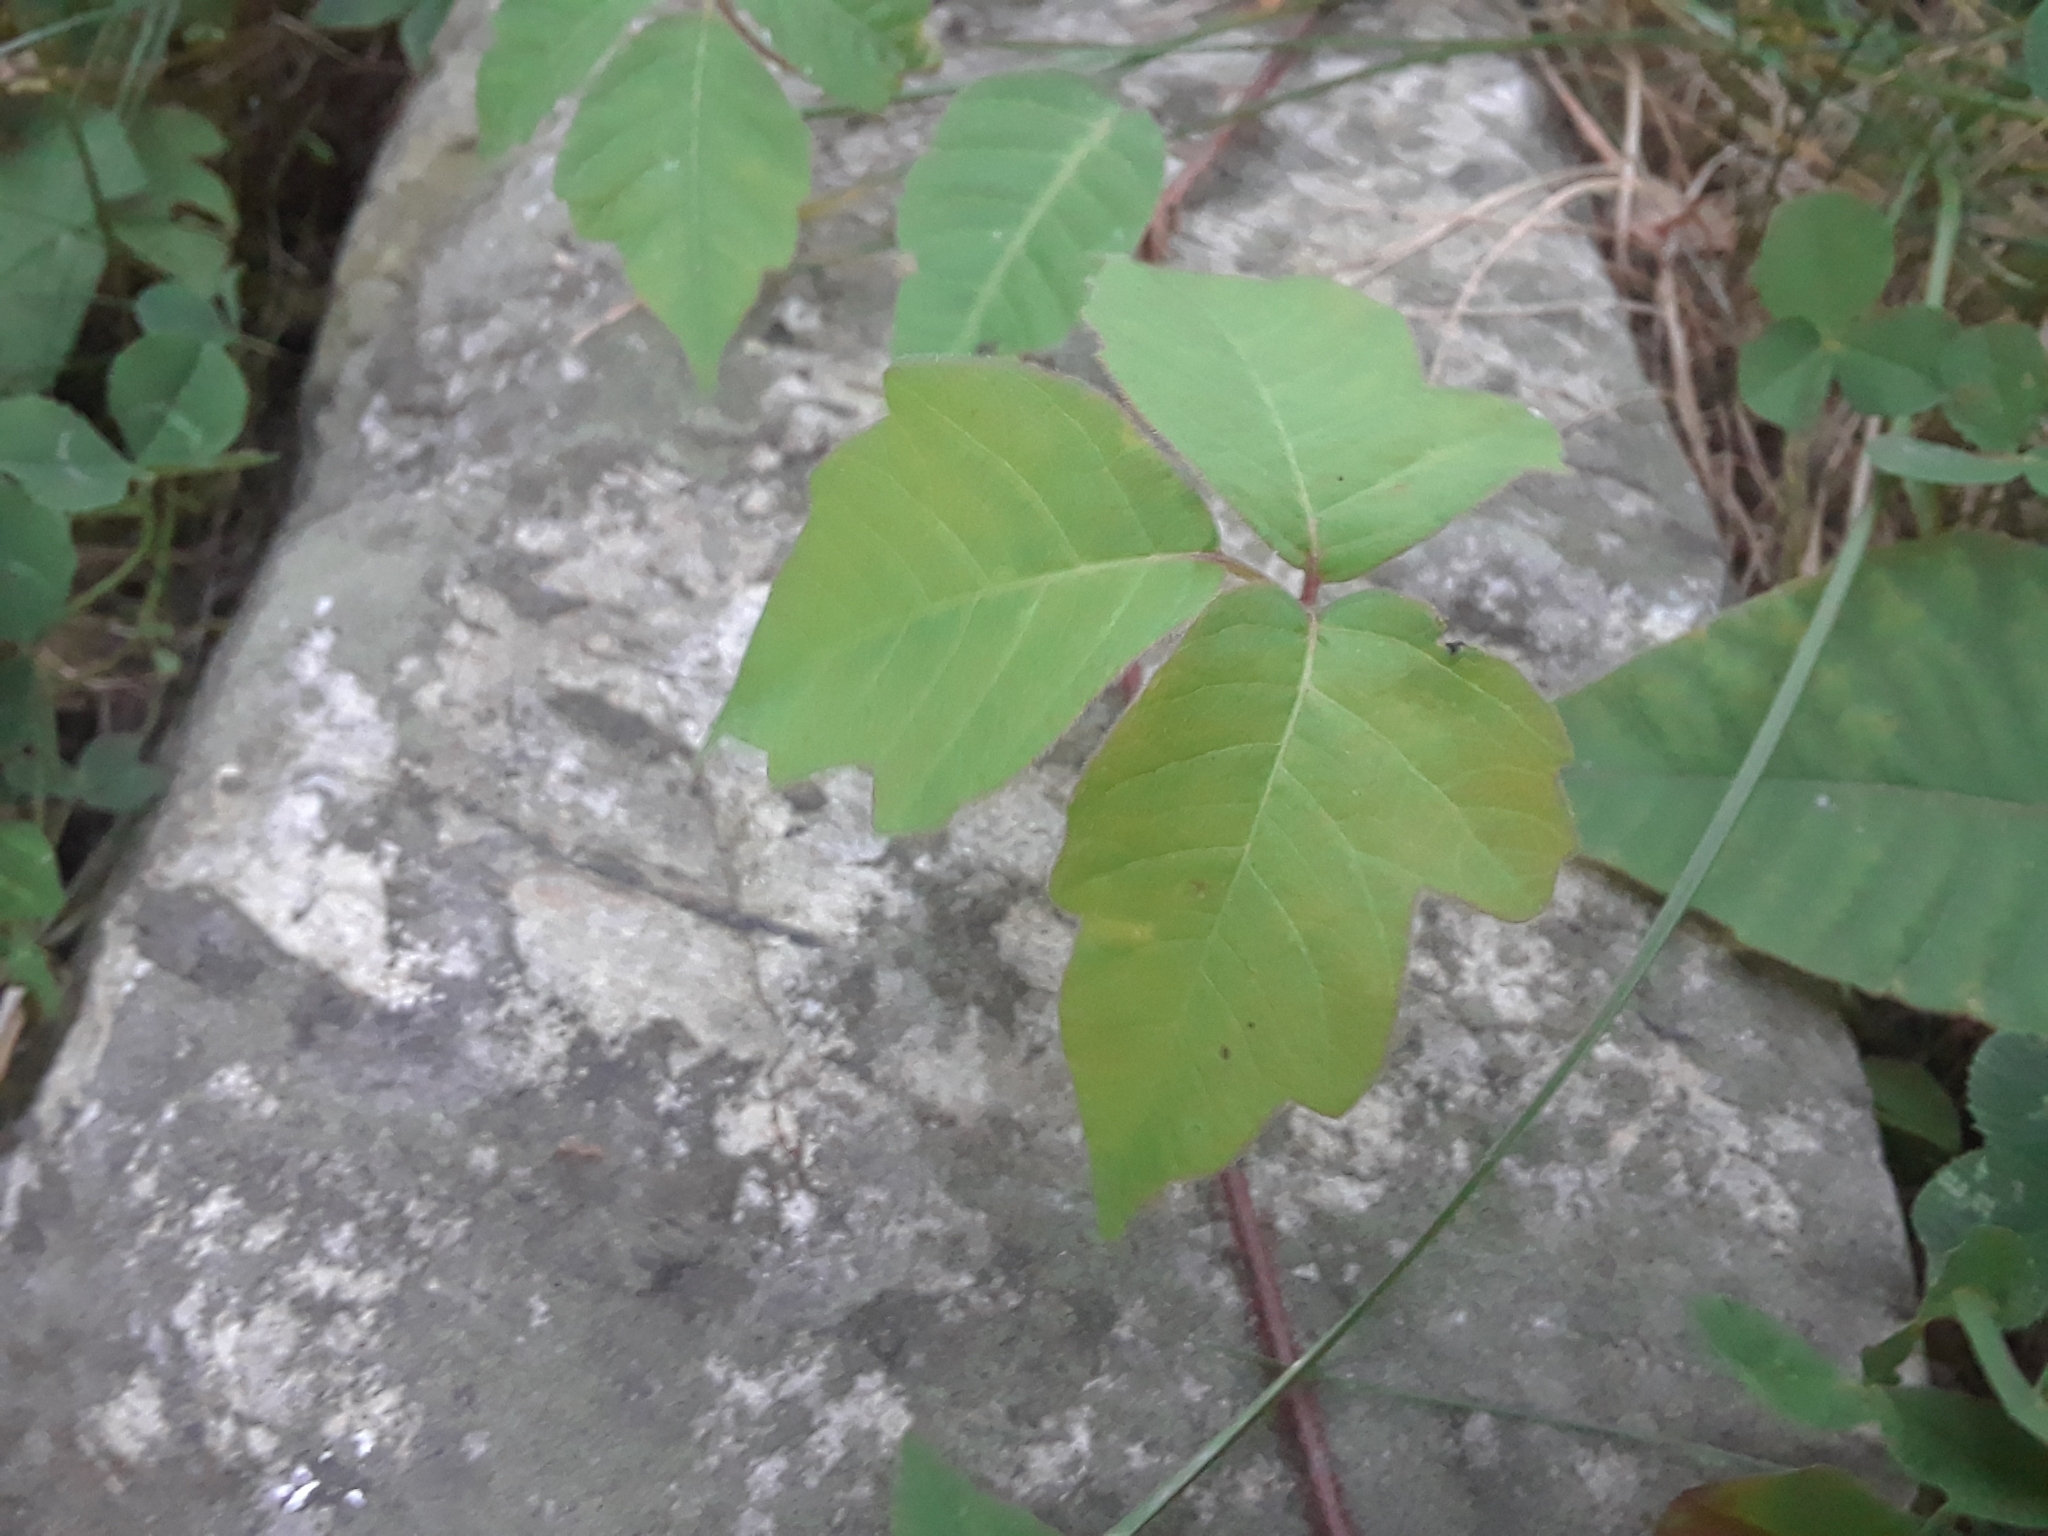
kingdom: Plantae
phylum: Tracheophyta
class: Magnoliopsida
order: Sapindales
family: Anacardiaceae
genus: Toxicodendron
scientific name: Toxicodendron radicans
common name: Poison ivy
